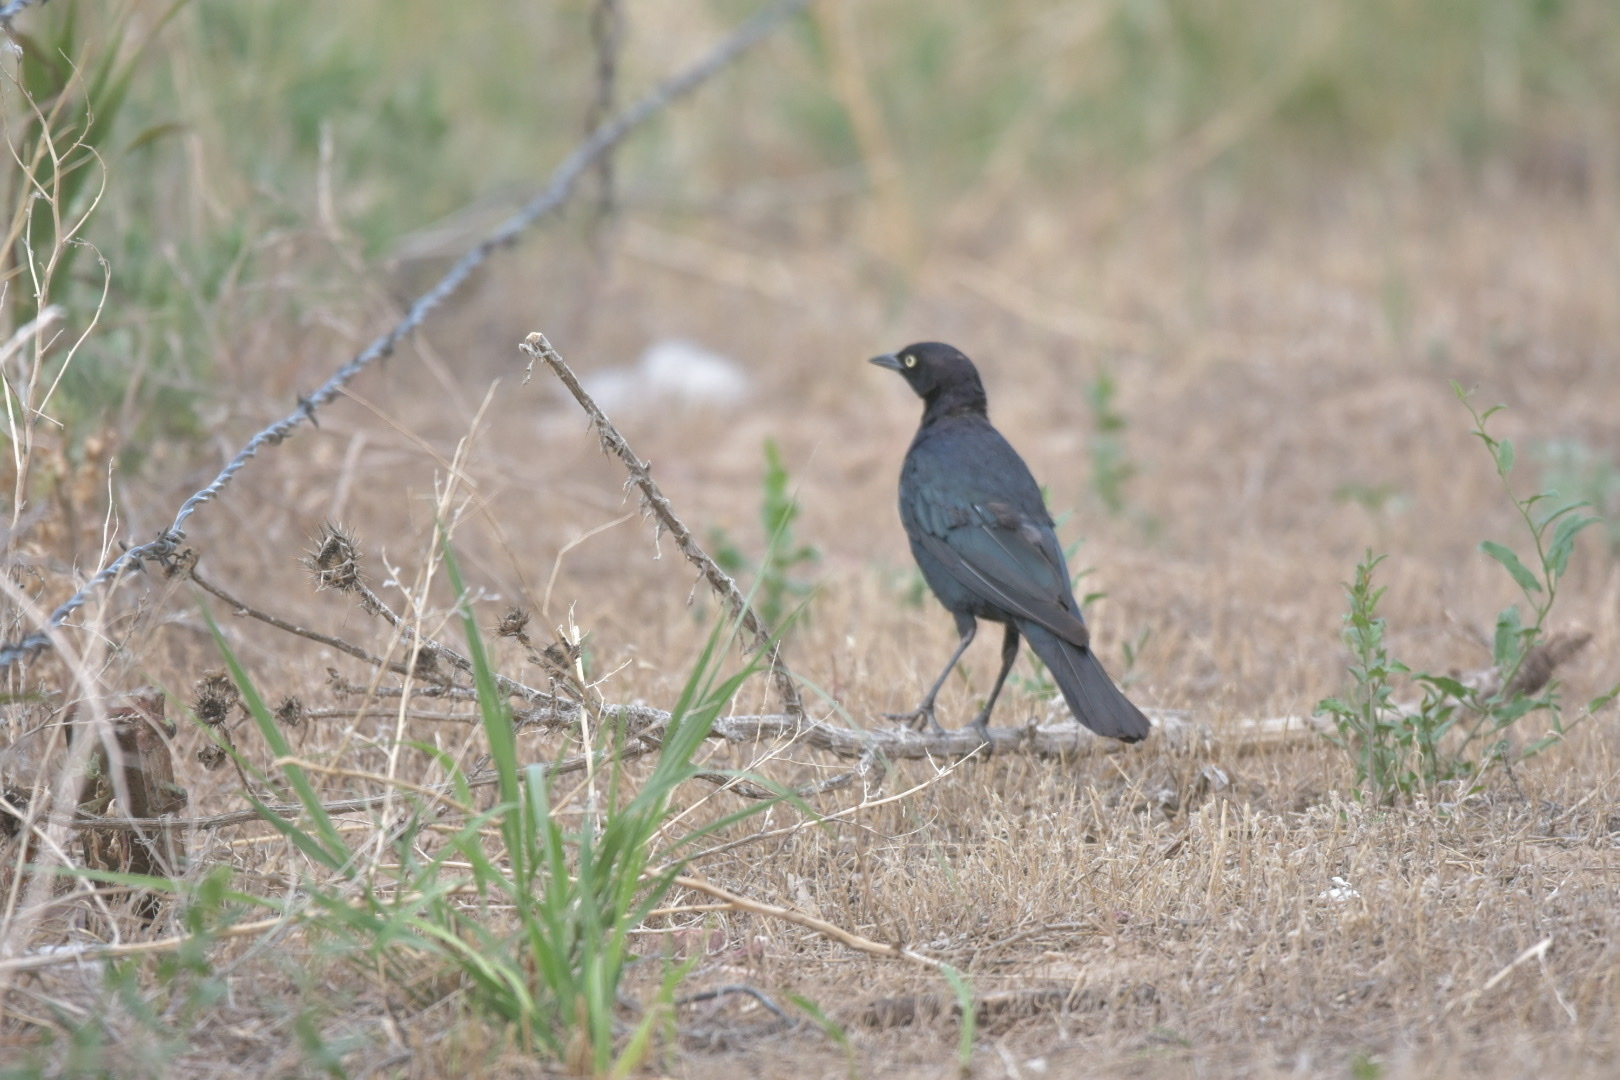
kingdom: Animalia
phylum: Chordata
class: Aves
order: Passeriformes
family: Icteridae
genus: Euphagus
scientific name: Euphagus cyanocephalus
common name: Brewer's blackbird
